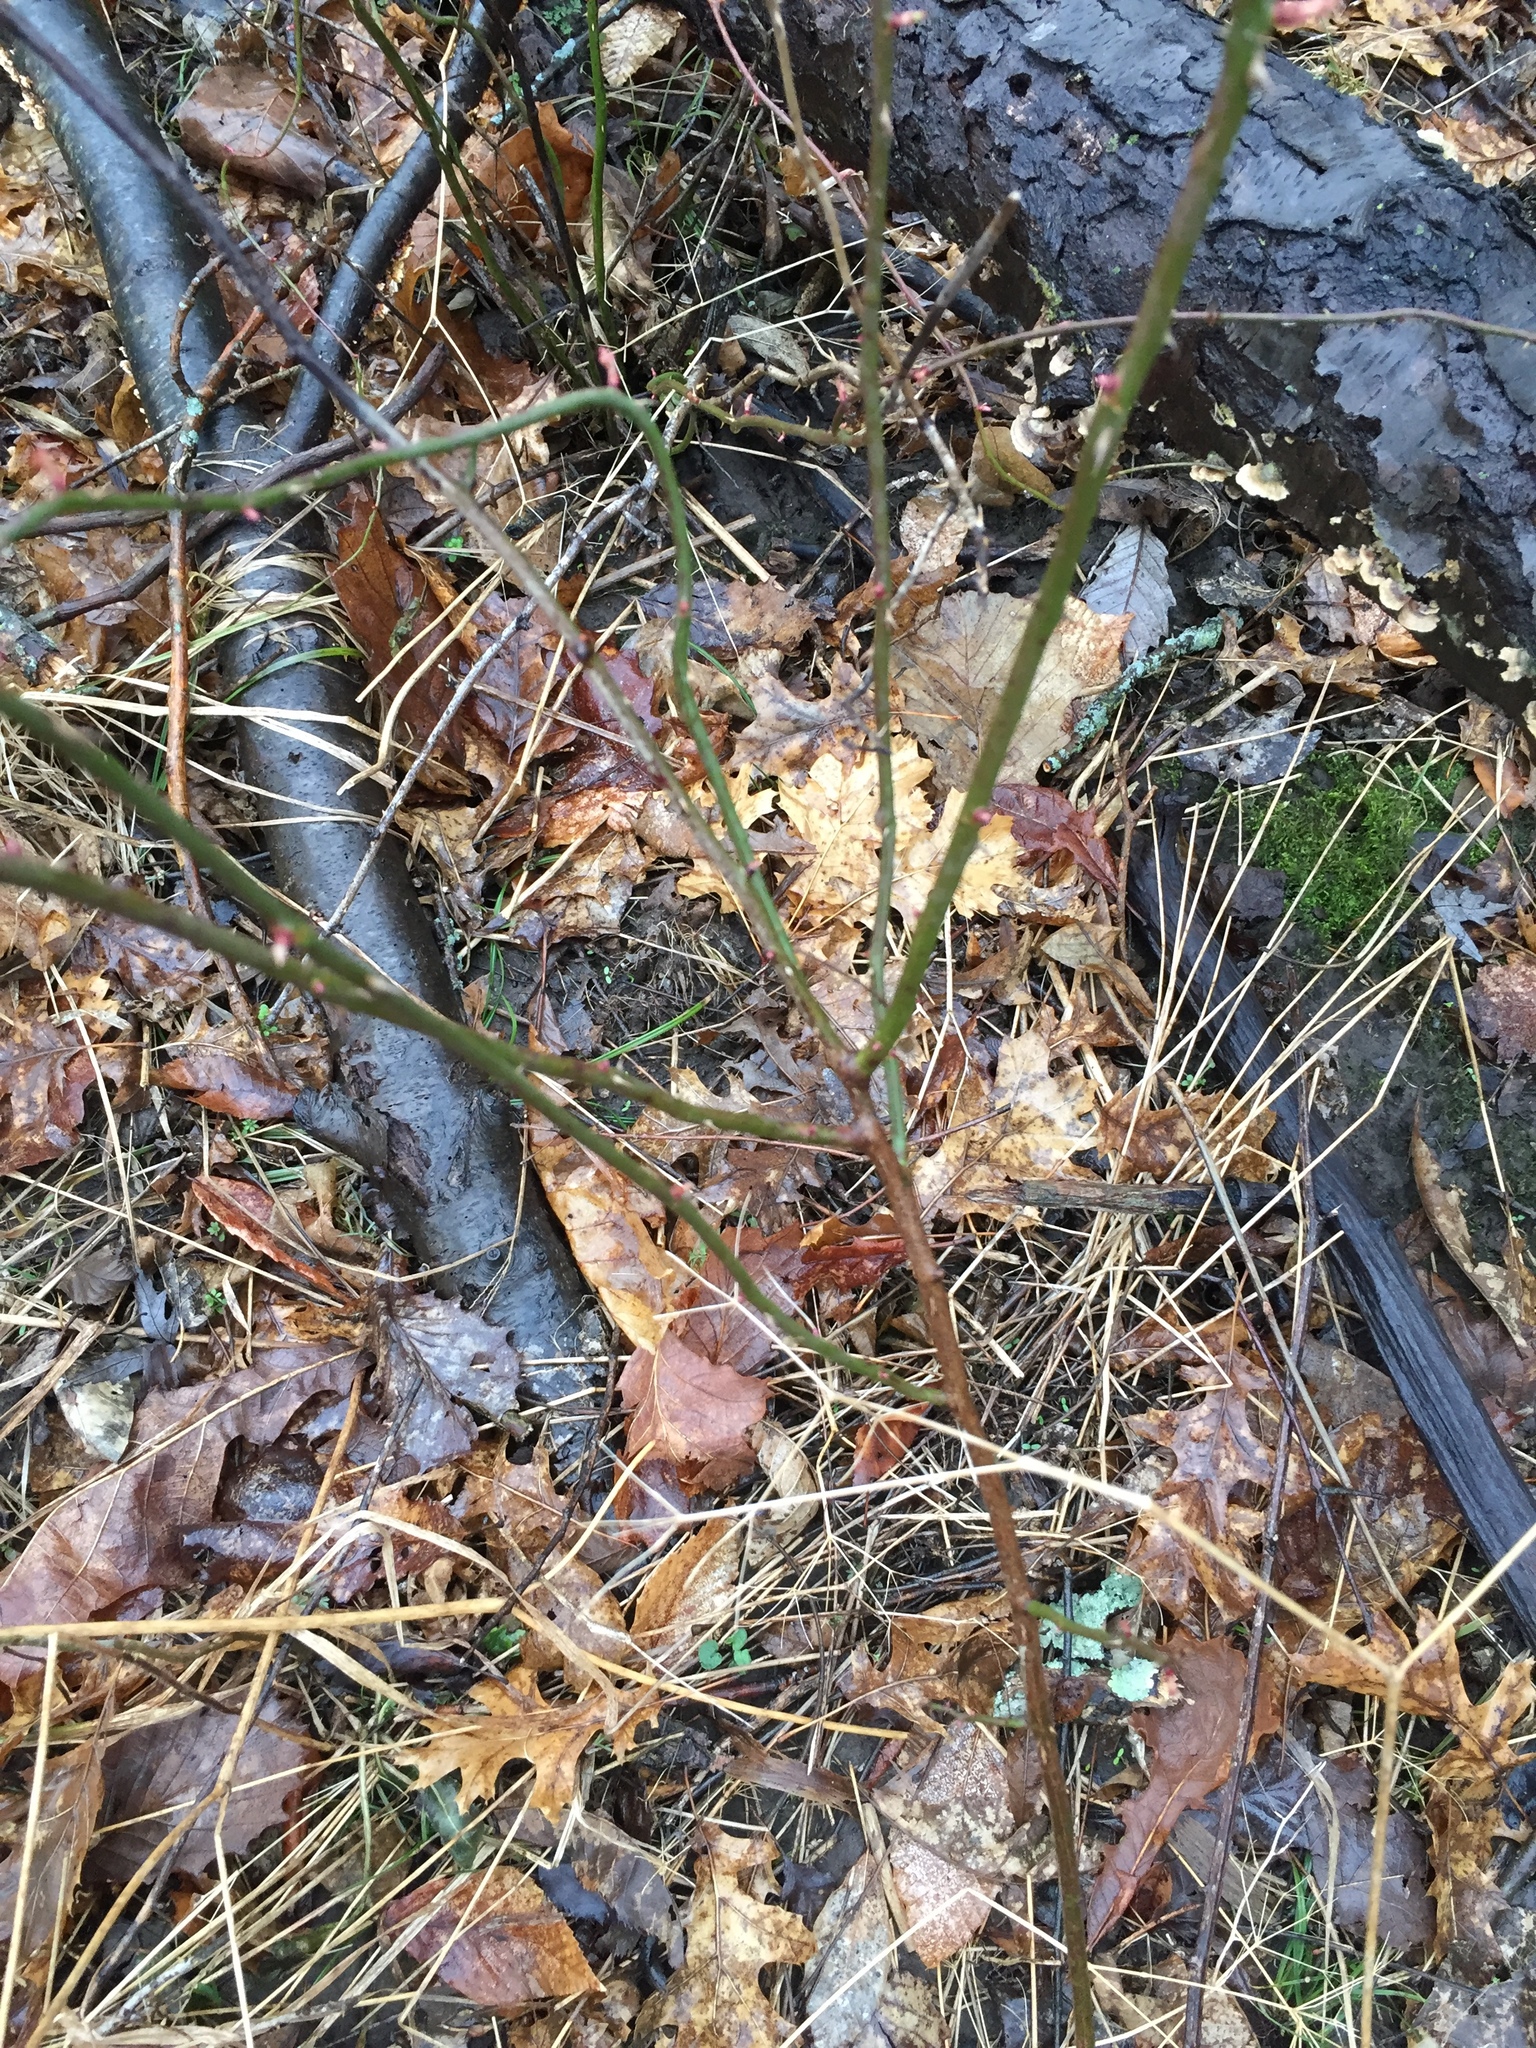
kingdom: Plantae
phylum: Tracheophyta
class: Magnoliopsida
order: Rosales
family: Rosaceae
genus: Rosa
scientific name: Rosa multiflora
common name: Multiflora rose
